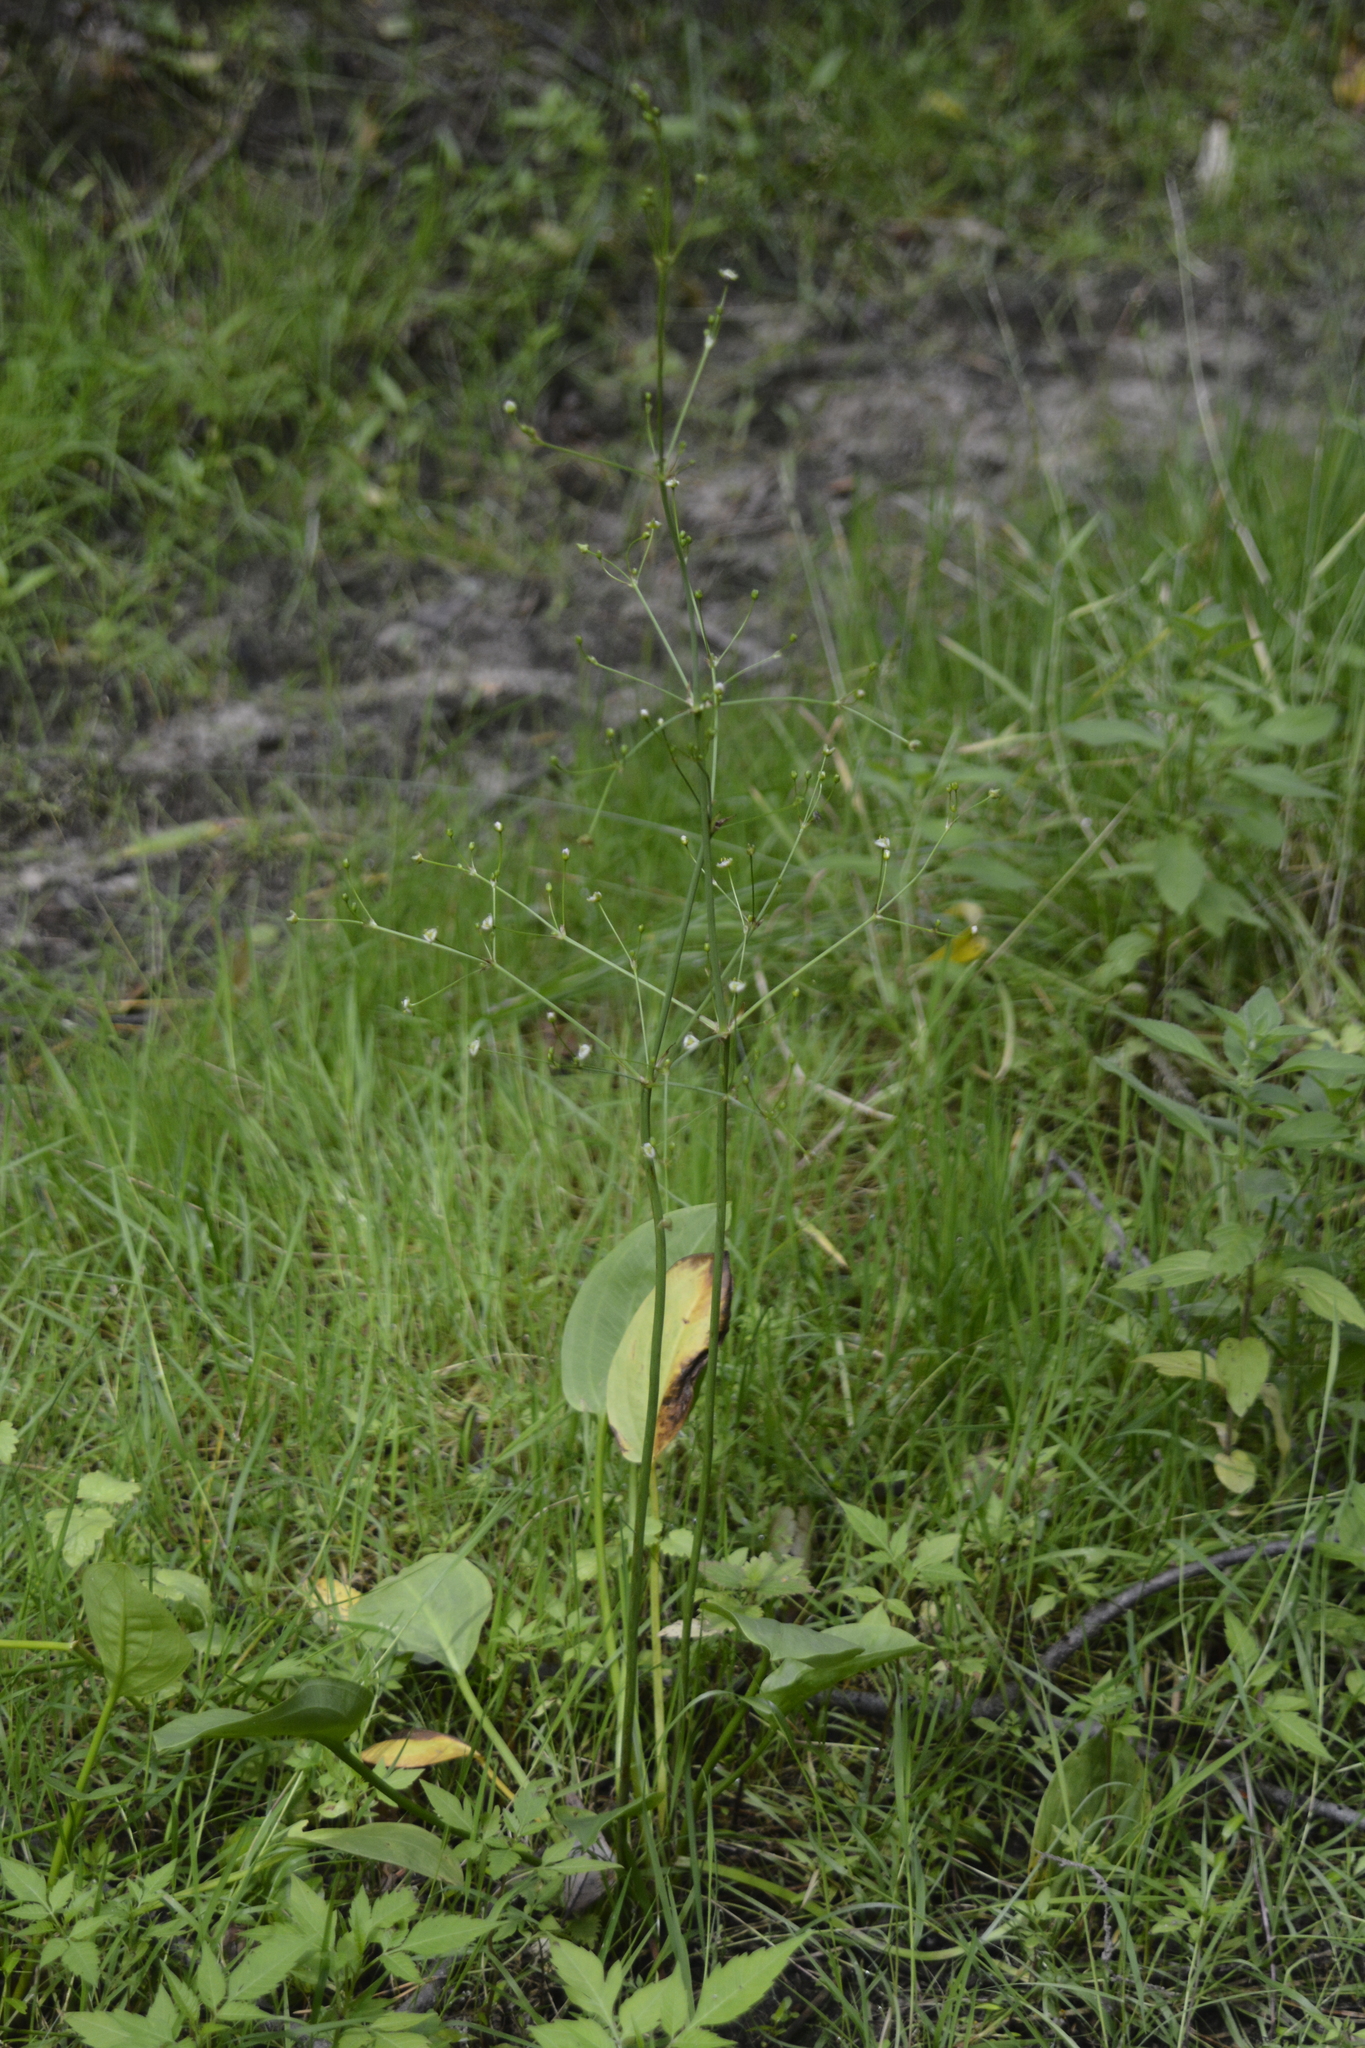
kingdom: Plantae
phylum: Tracheophyta
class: Liliopsida
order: Alismatales
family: Alismataceae
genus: Alisma
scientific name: Alisma plantago-aquatica
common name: Water-plantain
